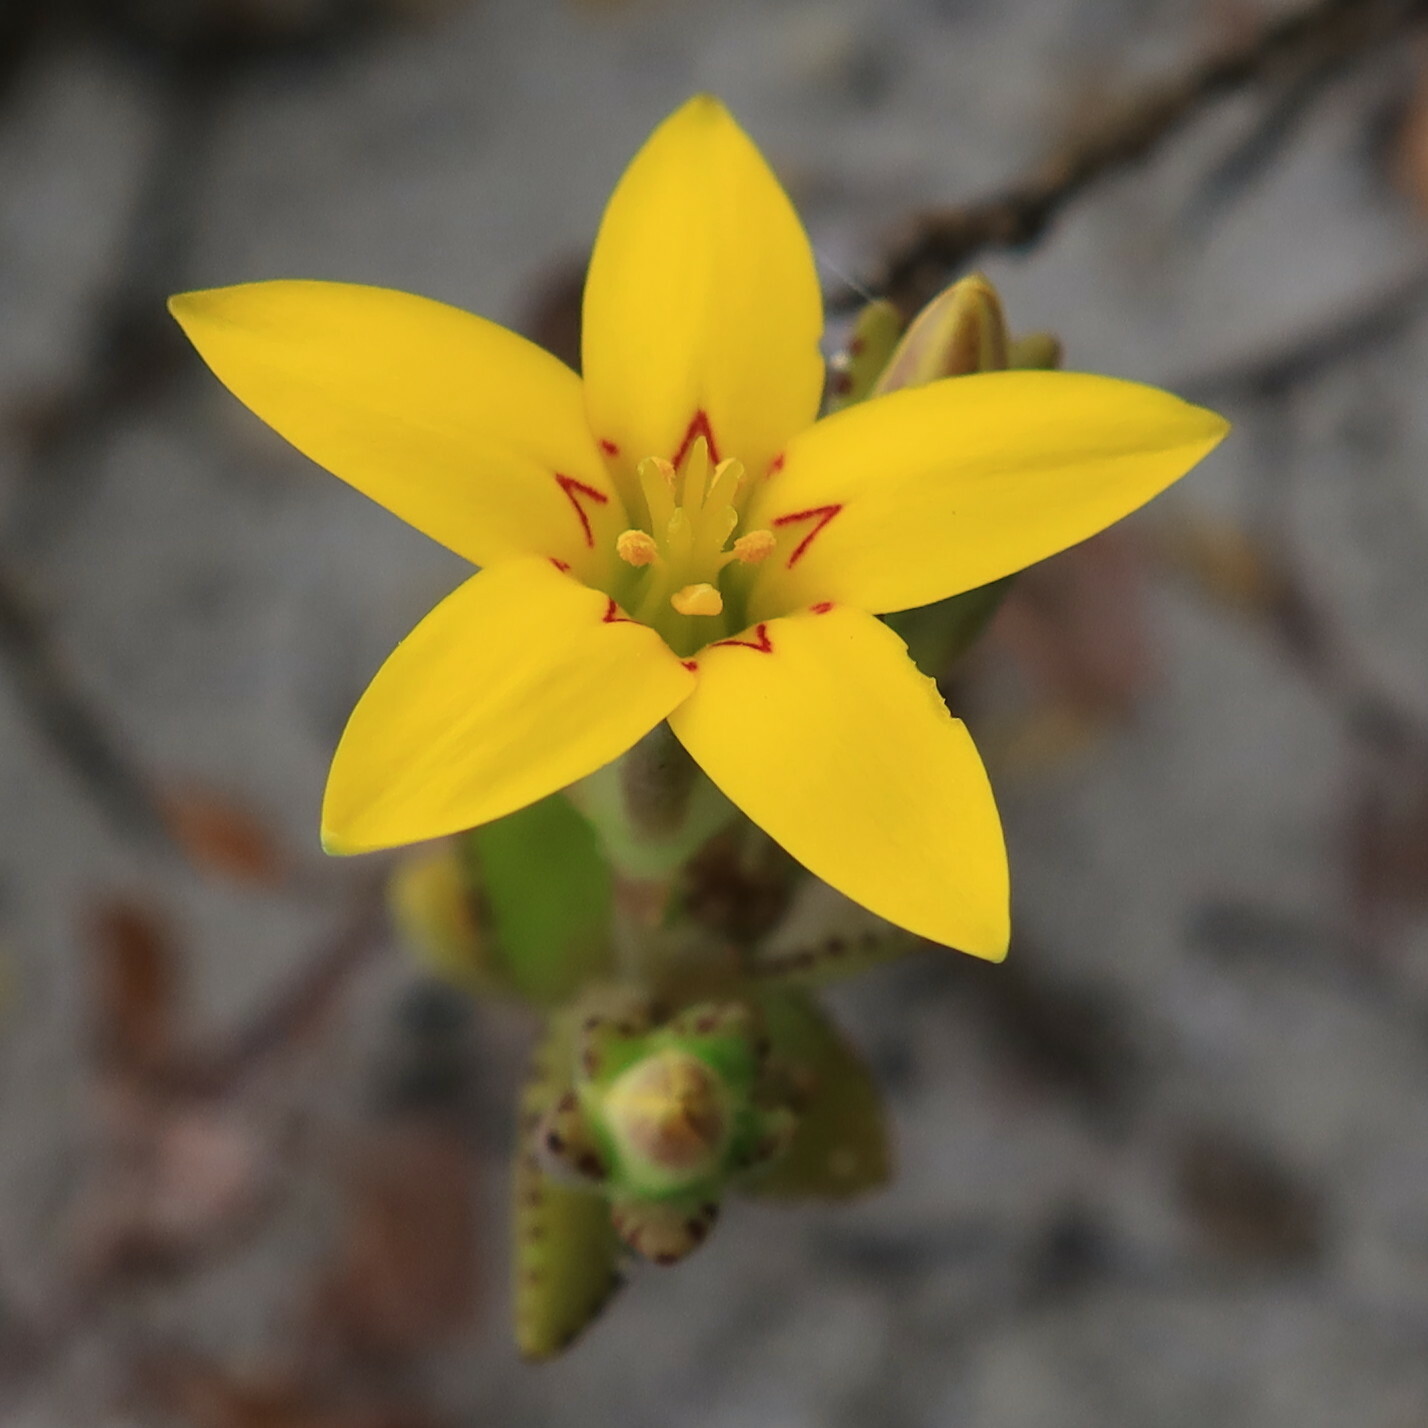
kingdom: Plantae
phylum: Tracheophyta
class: Magnoliopsida
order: Saxifragales
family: Crassulaceae
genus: Crassula
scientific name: Crassula dichotoma
